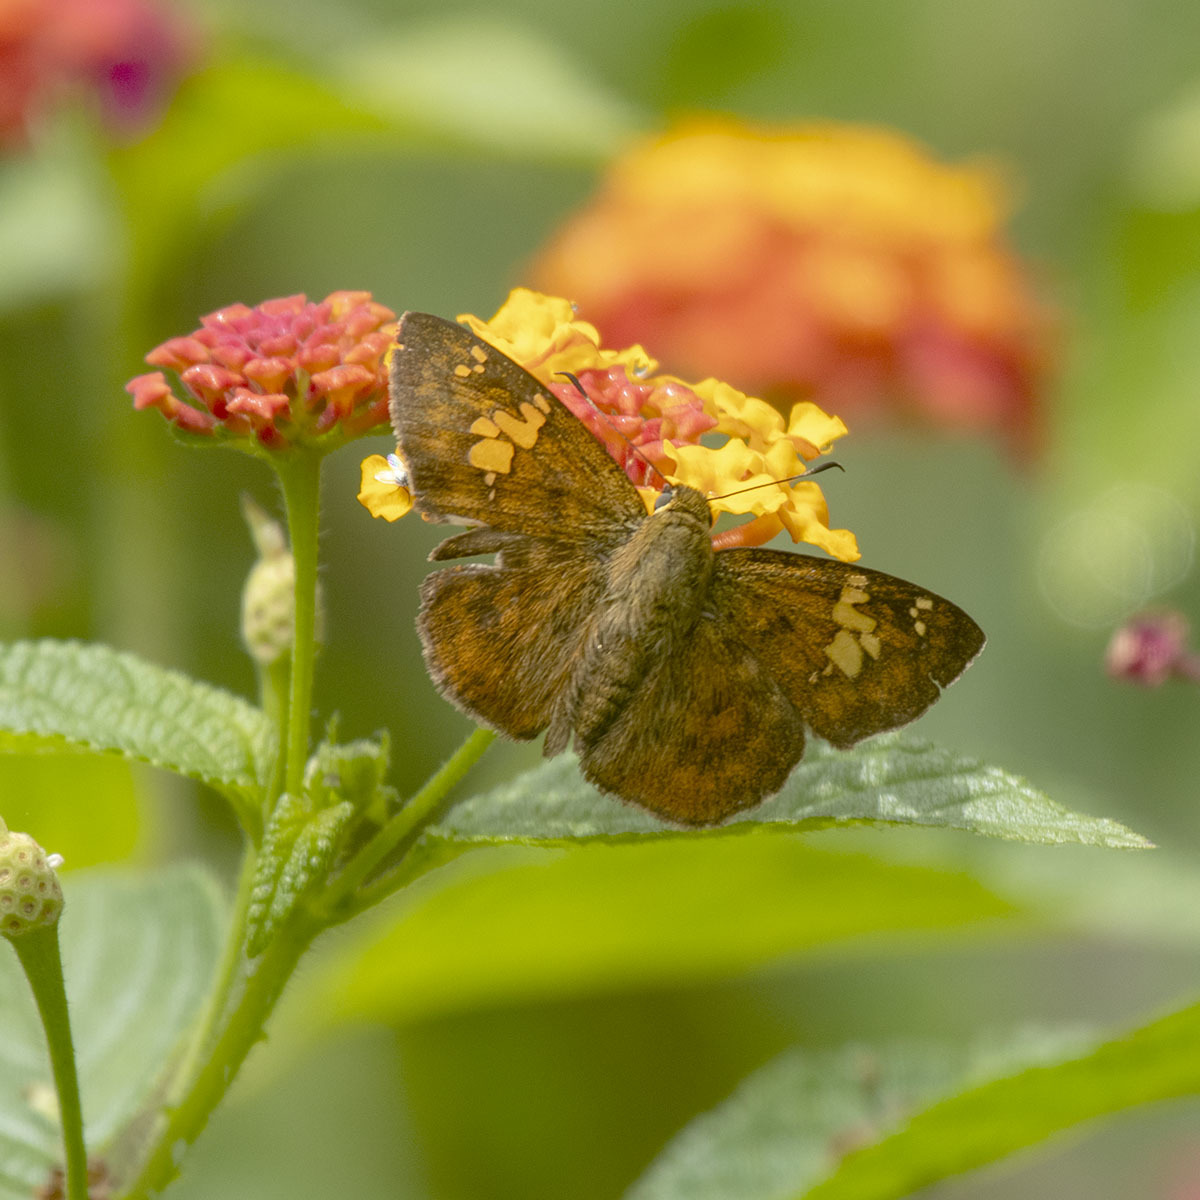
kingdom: Animalia
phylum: Arthropoda
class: Insecta
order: Lepidoptera
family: Hesperiidae
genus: Pseudocoladenia
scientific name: Pseudocoladenia dan
